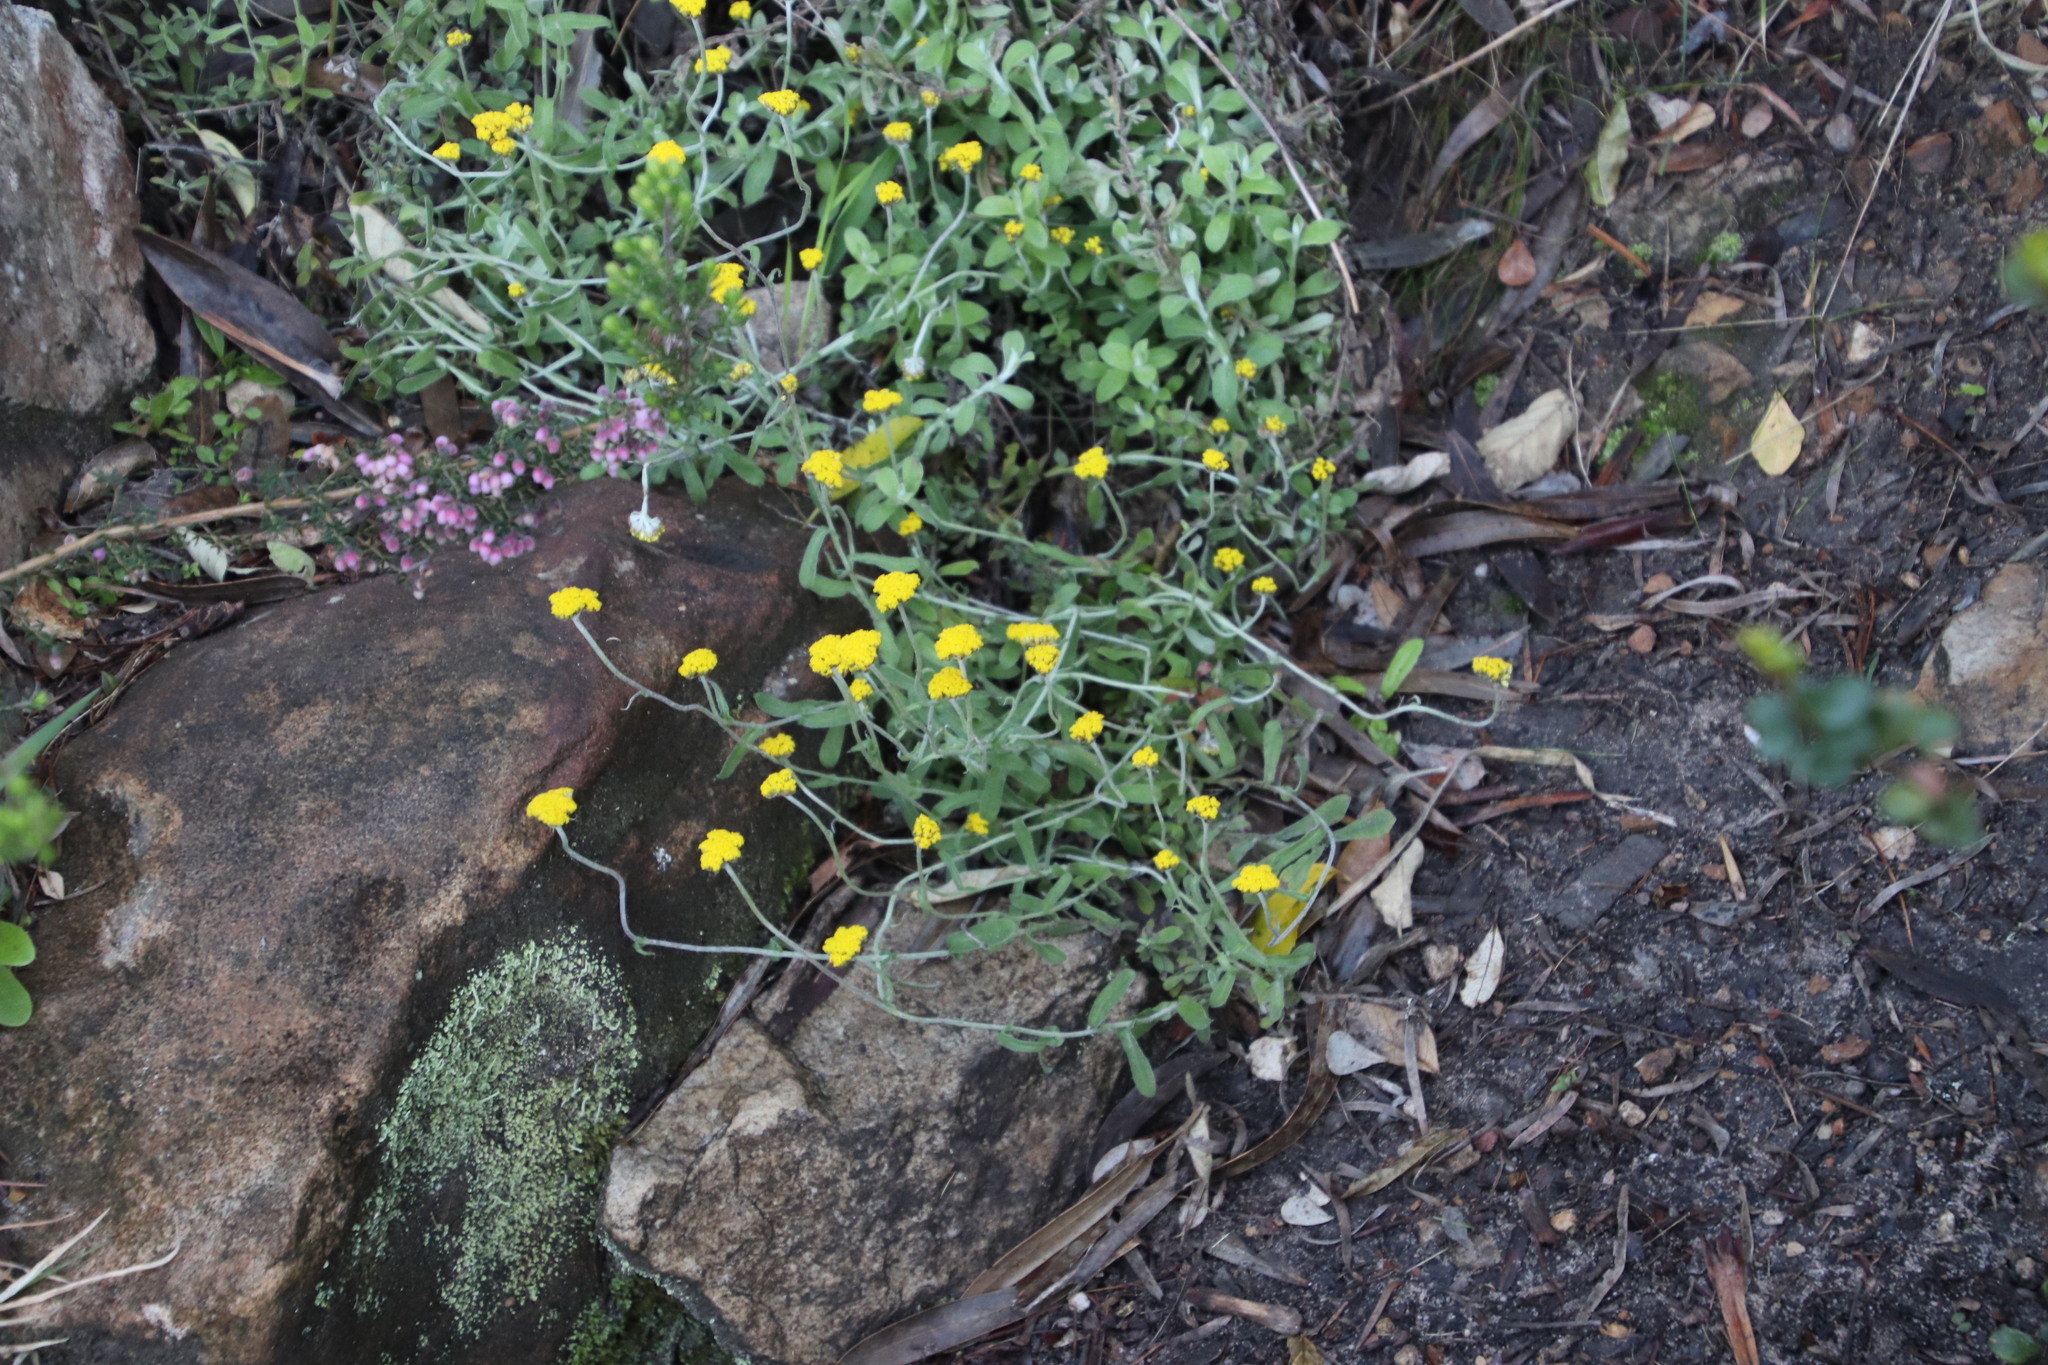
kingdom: Plantae
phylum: Tracheophyta
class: Magnoliopsida
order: Asterales
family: Asteraceae
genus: Helichrysum
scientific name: Helichrysum cymosum
